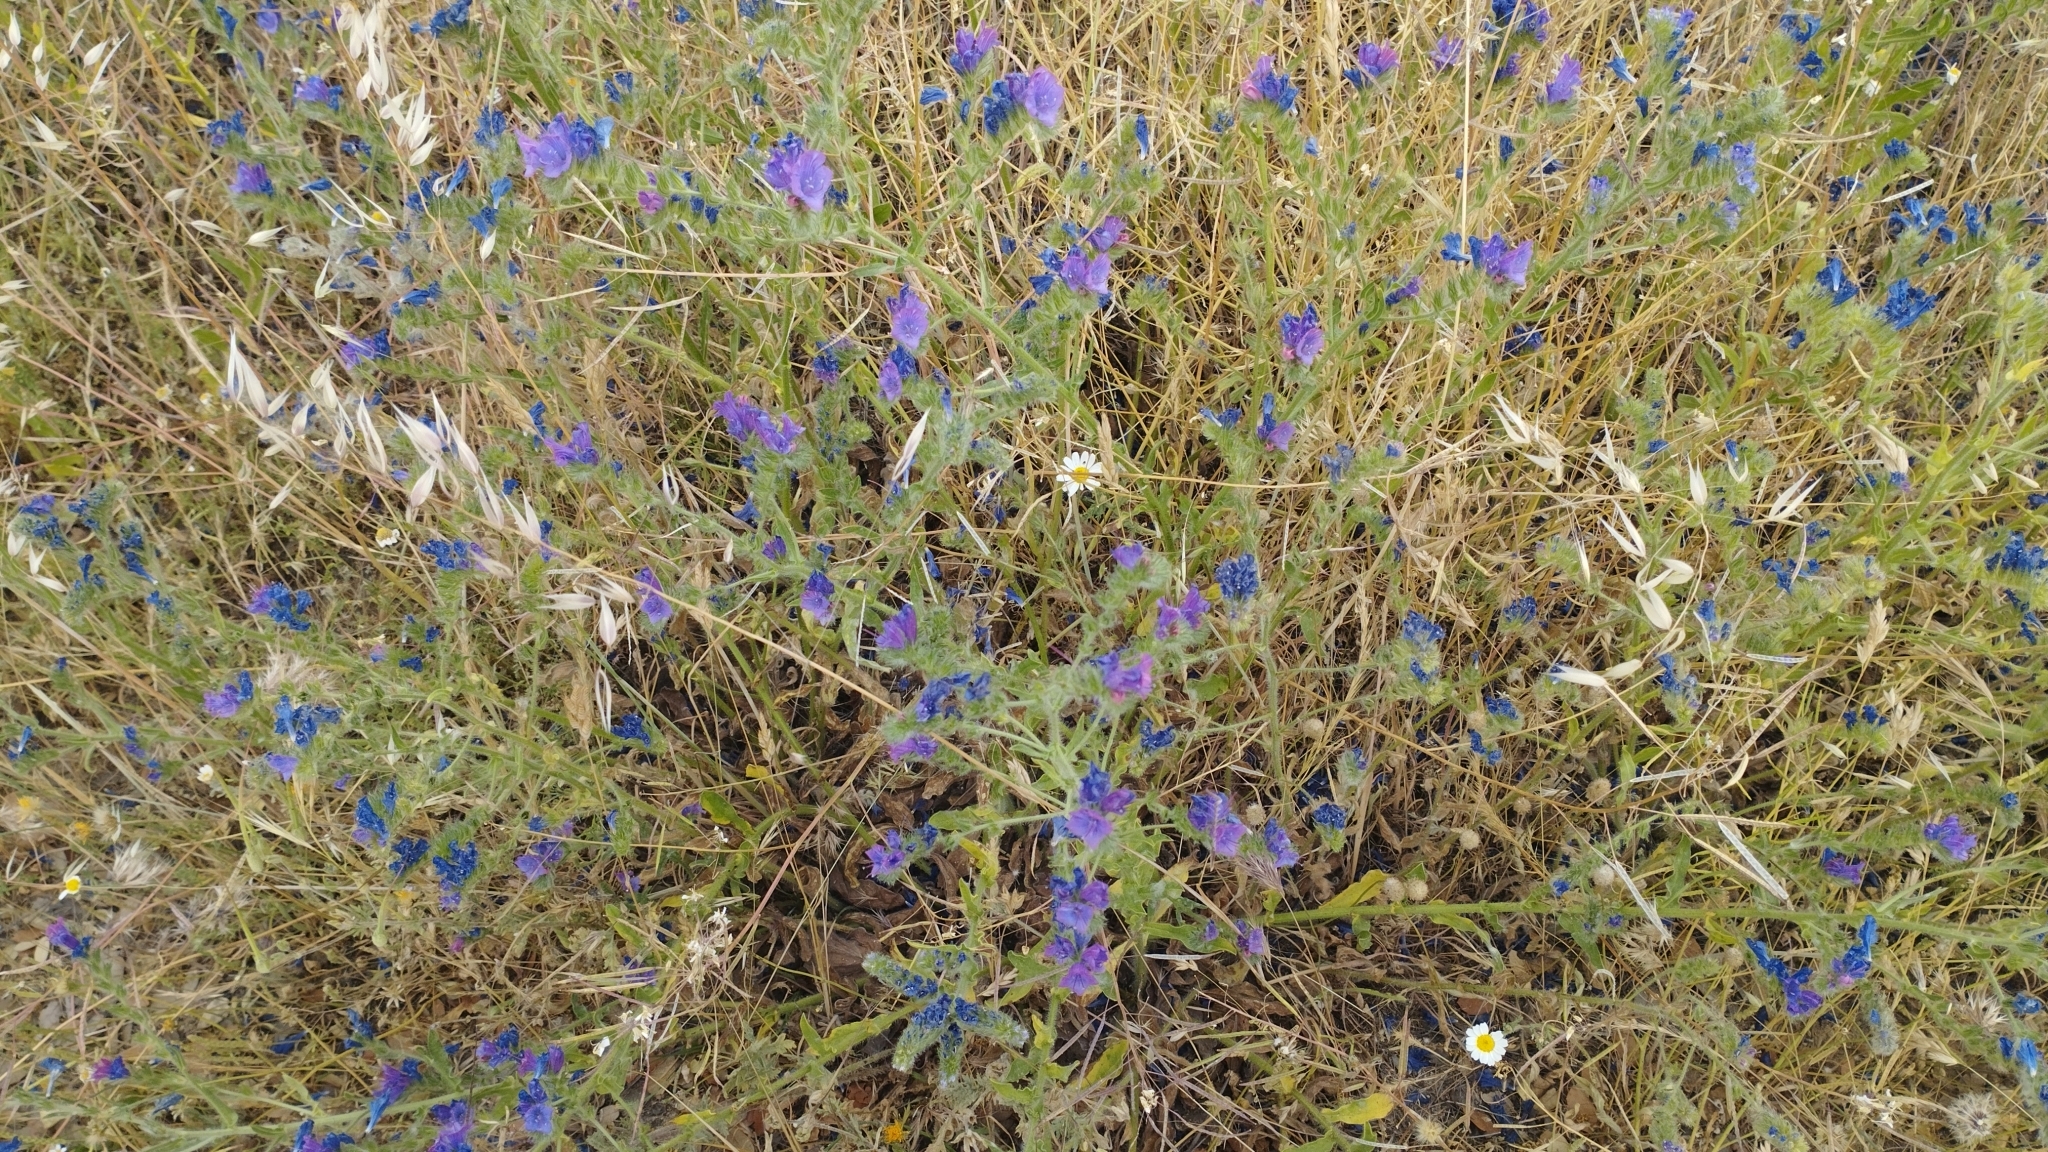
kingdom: Plantae
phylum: Tracheophyta
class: Magnoliopsida
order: Boraginales
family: Boraginaceae
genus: Echium
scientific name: Echium plantagineum
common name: Purple viper's-bugloss
